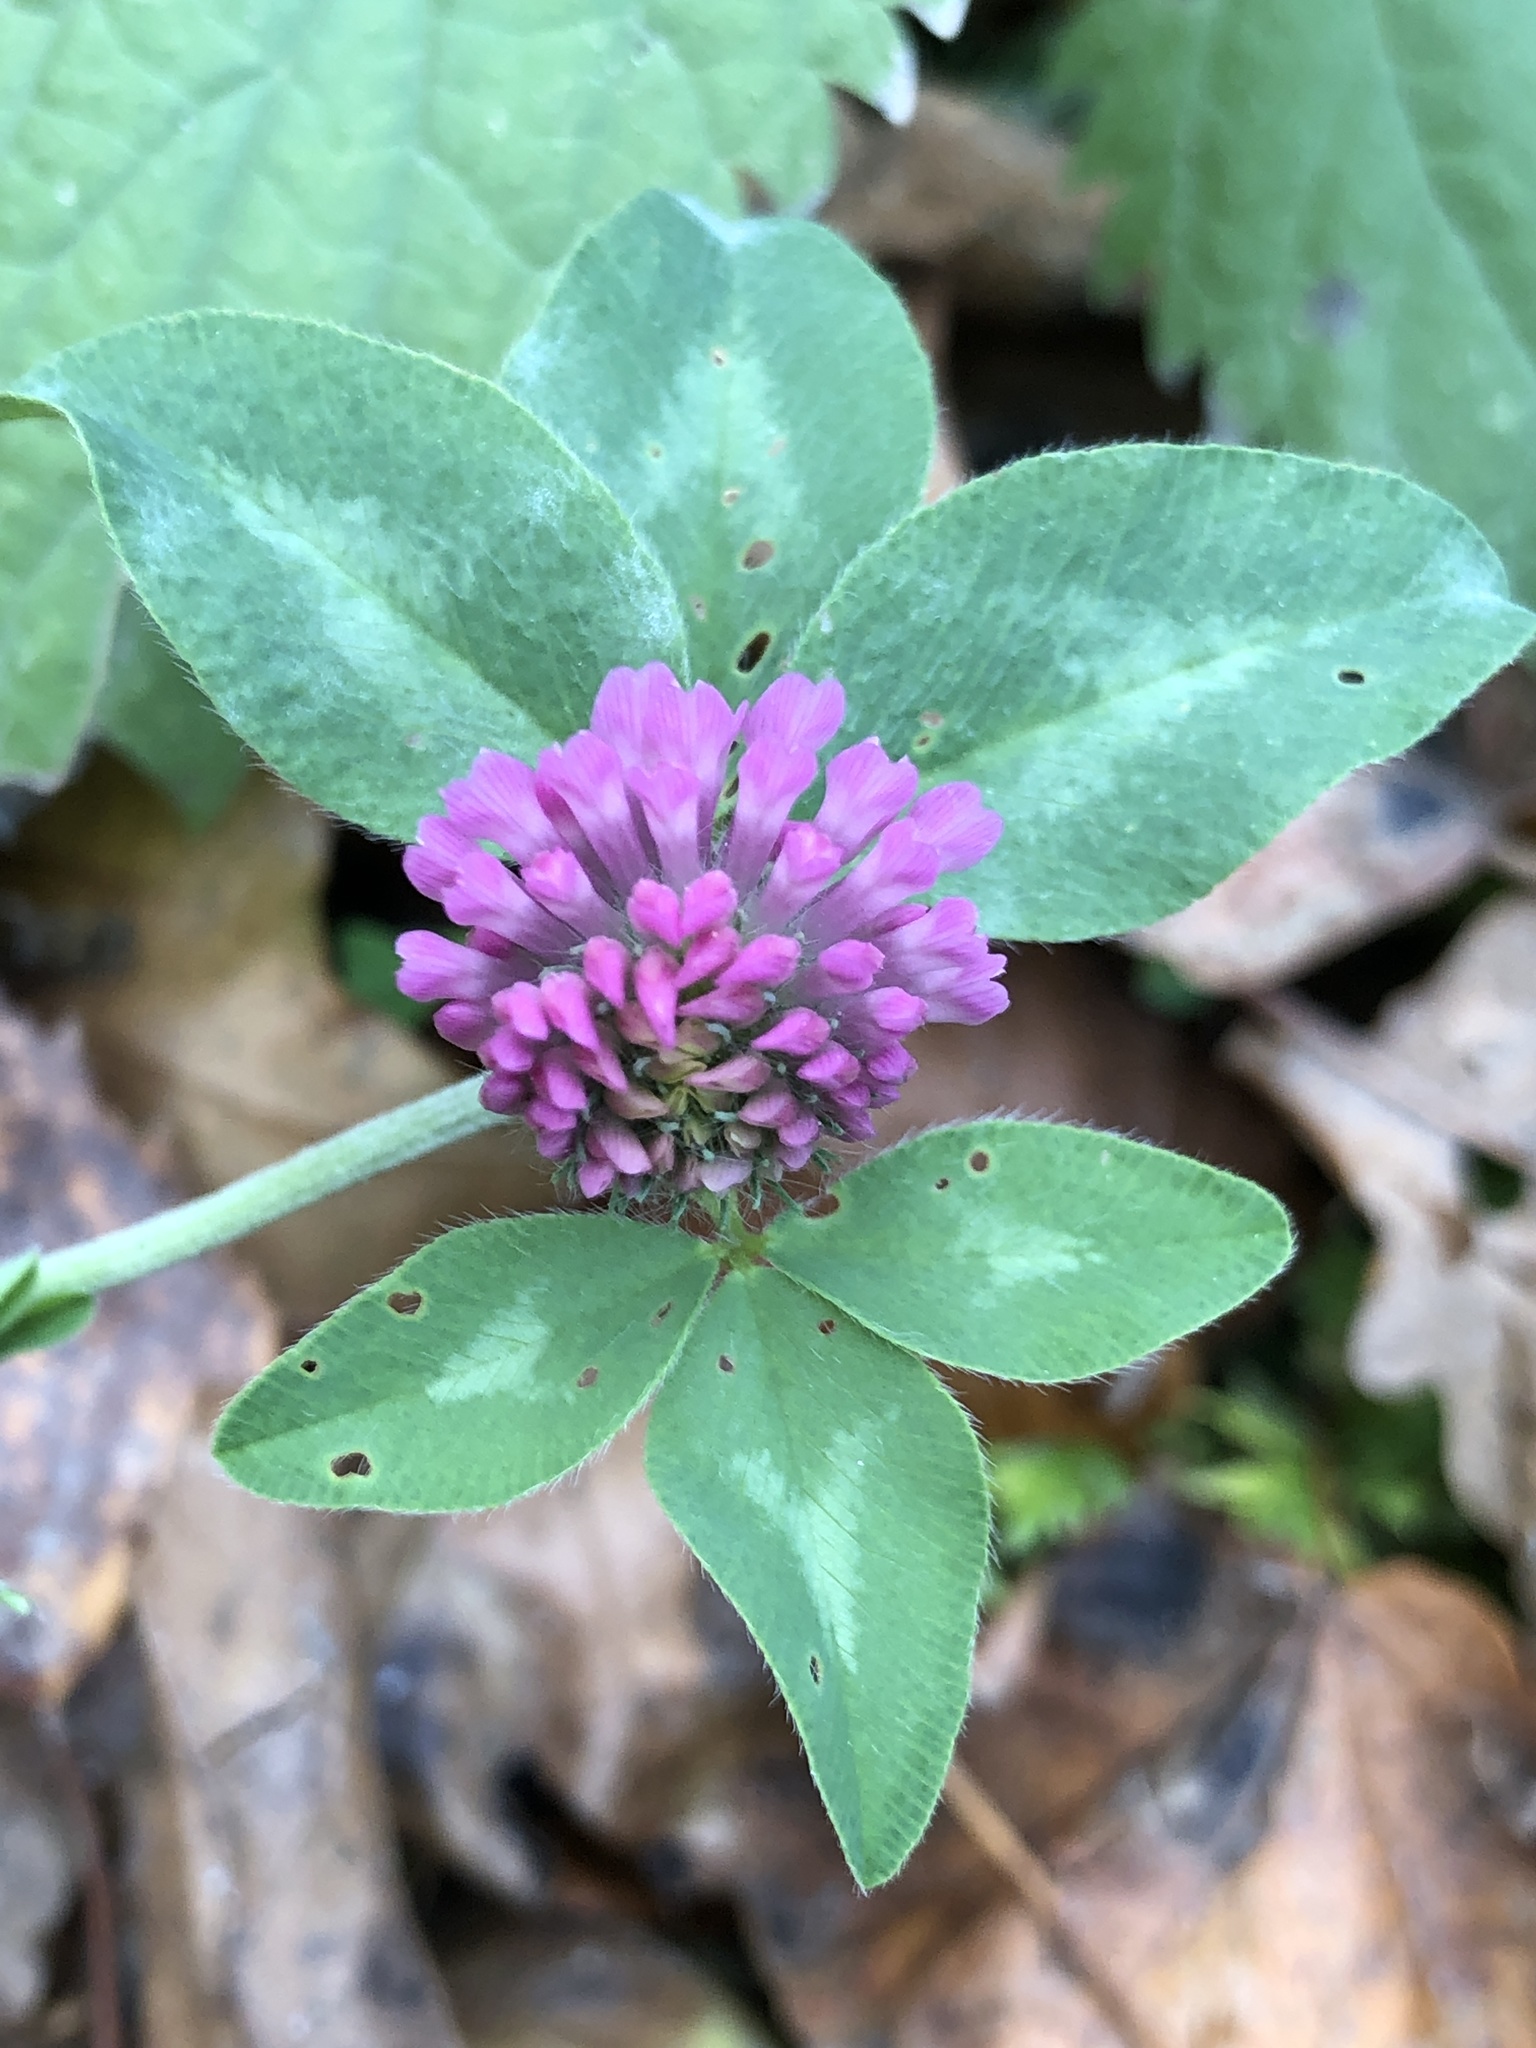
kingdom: Plantae
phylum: Tracheophyta
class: Magnoliopsida
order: Fabales
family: Fabaceae
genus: Trifolium
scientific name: Trifolium pratense
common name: Red clover
